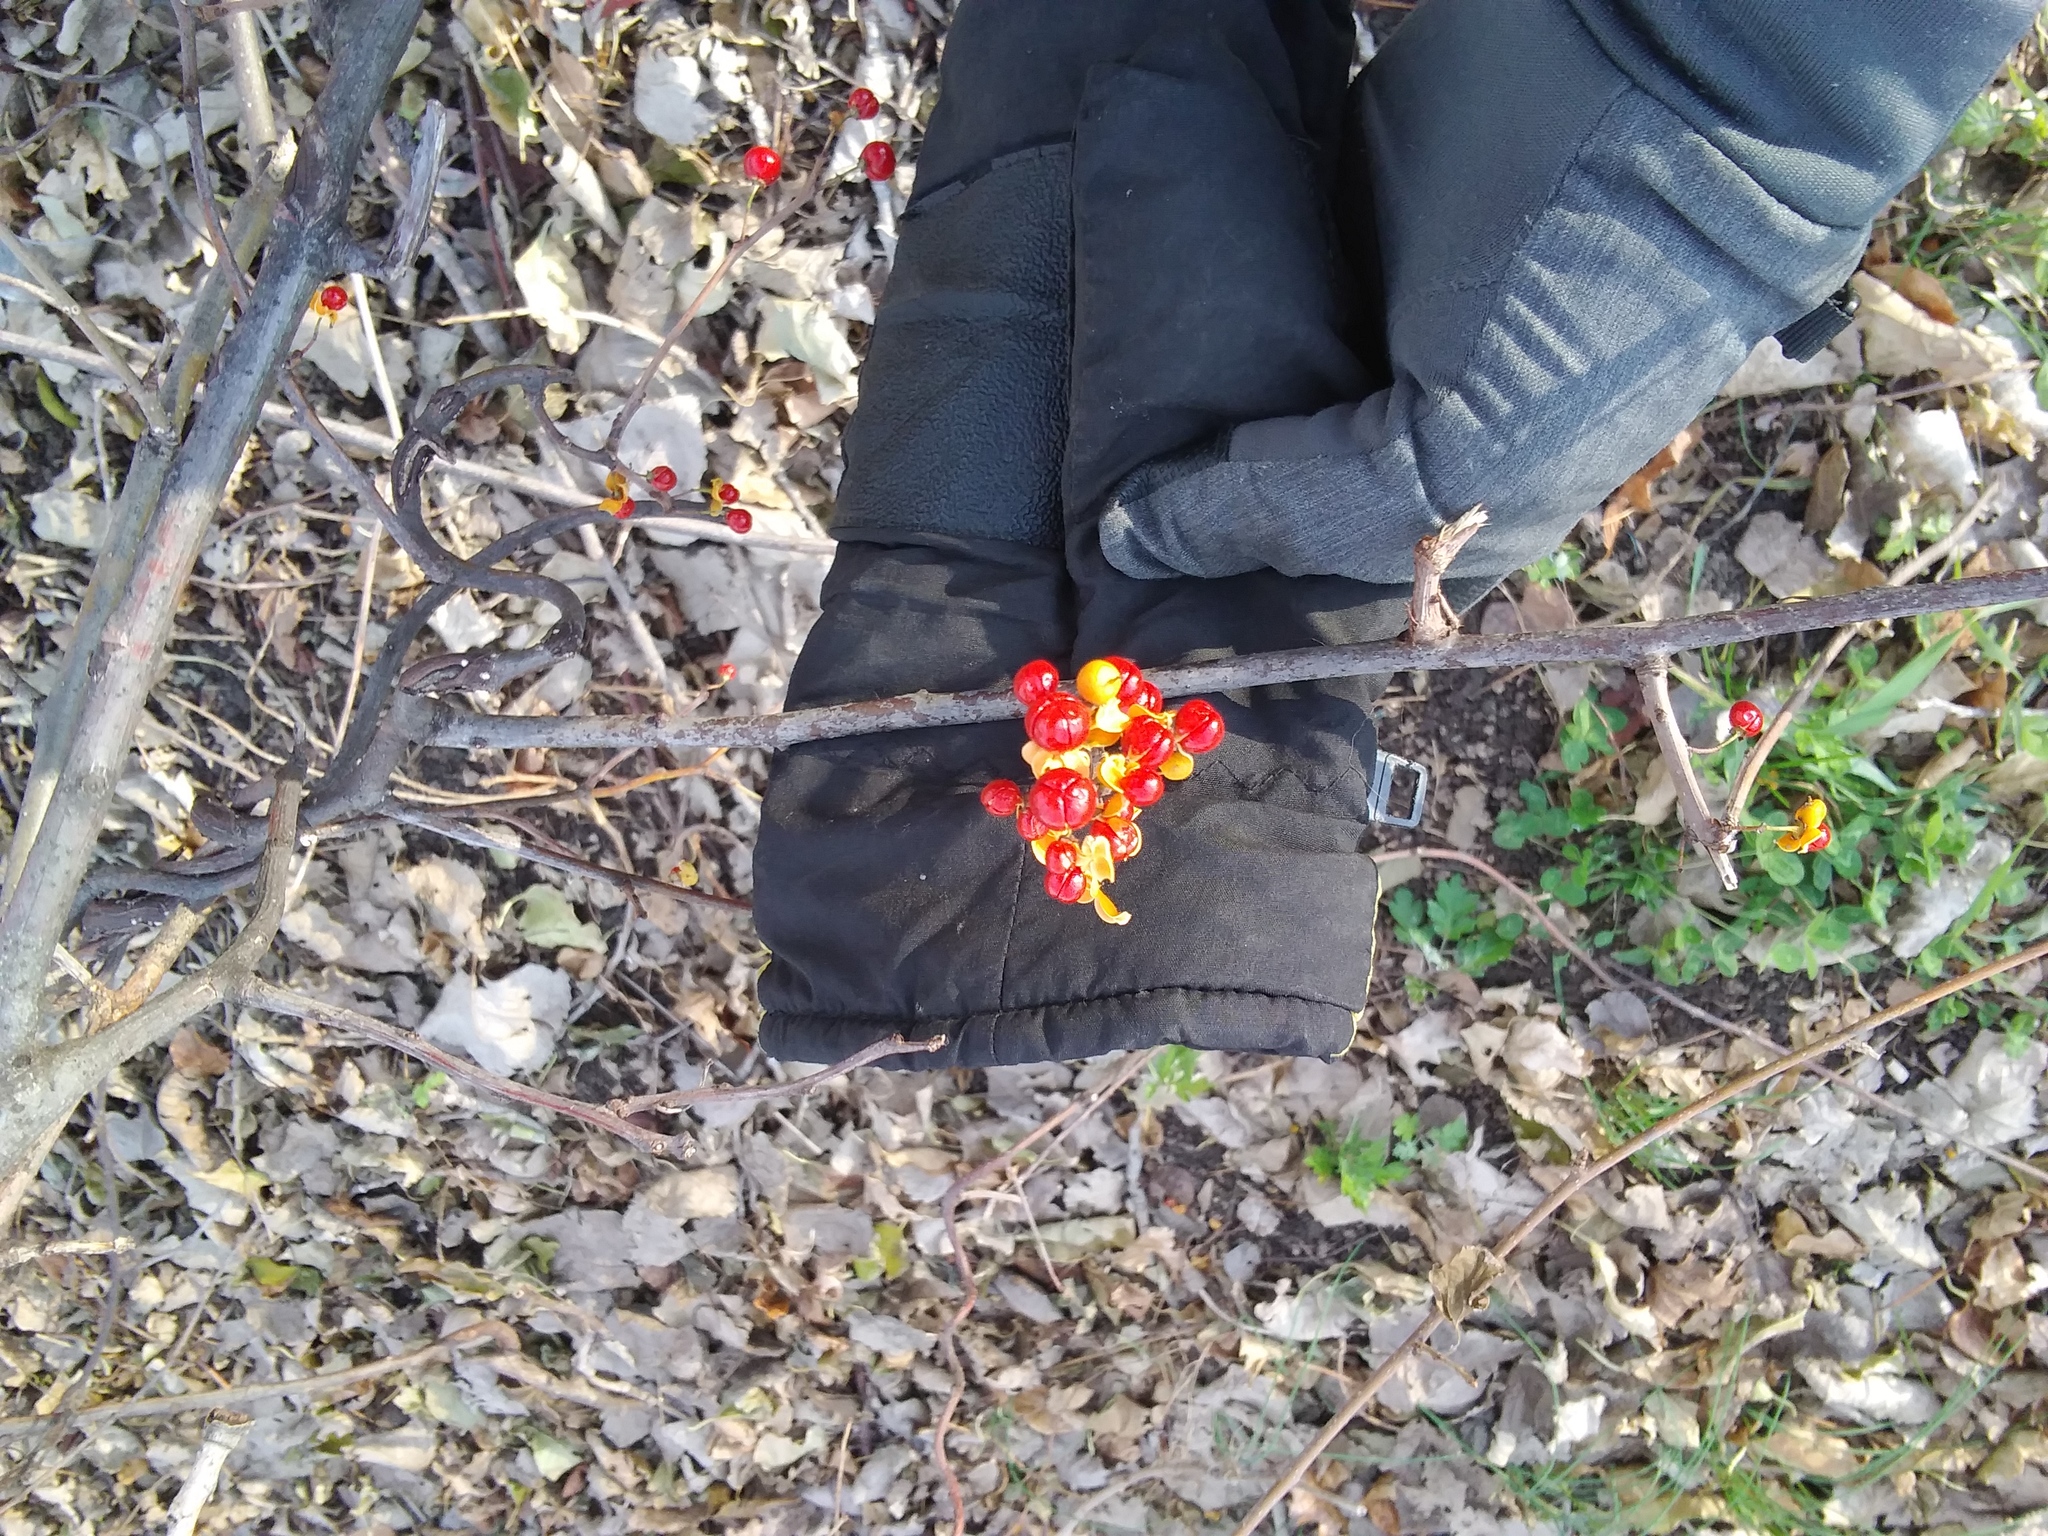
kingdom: Plantae
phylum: Tracheophyta
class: Magnoliopsida
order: Celastrales
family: Celastraceae
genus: Celastrus
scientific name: Celastrus orbiculatus
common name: Oriental bittersweet
